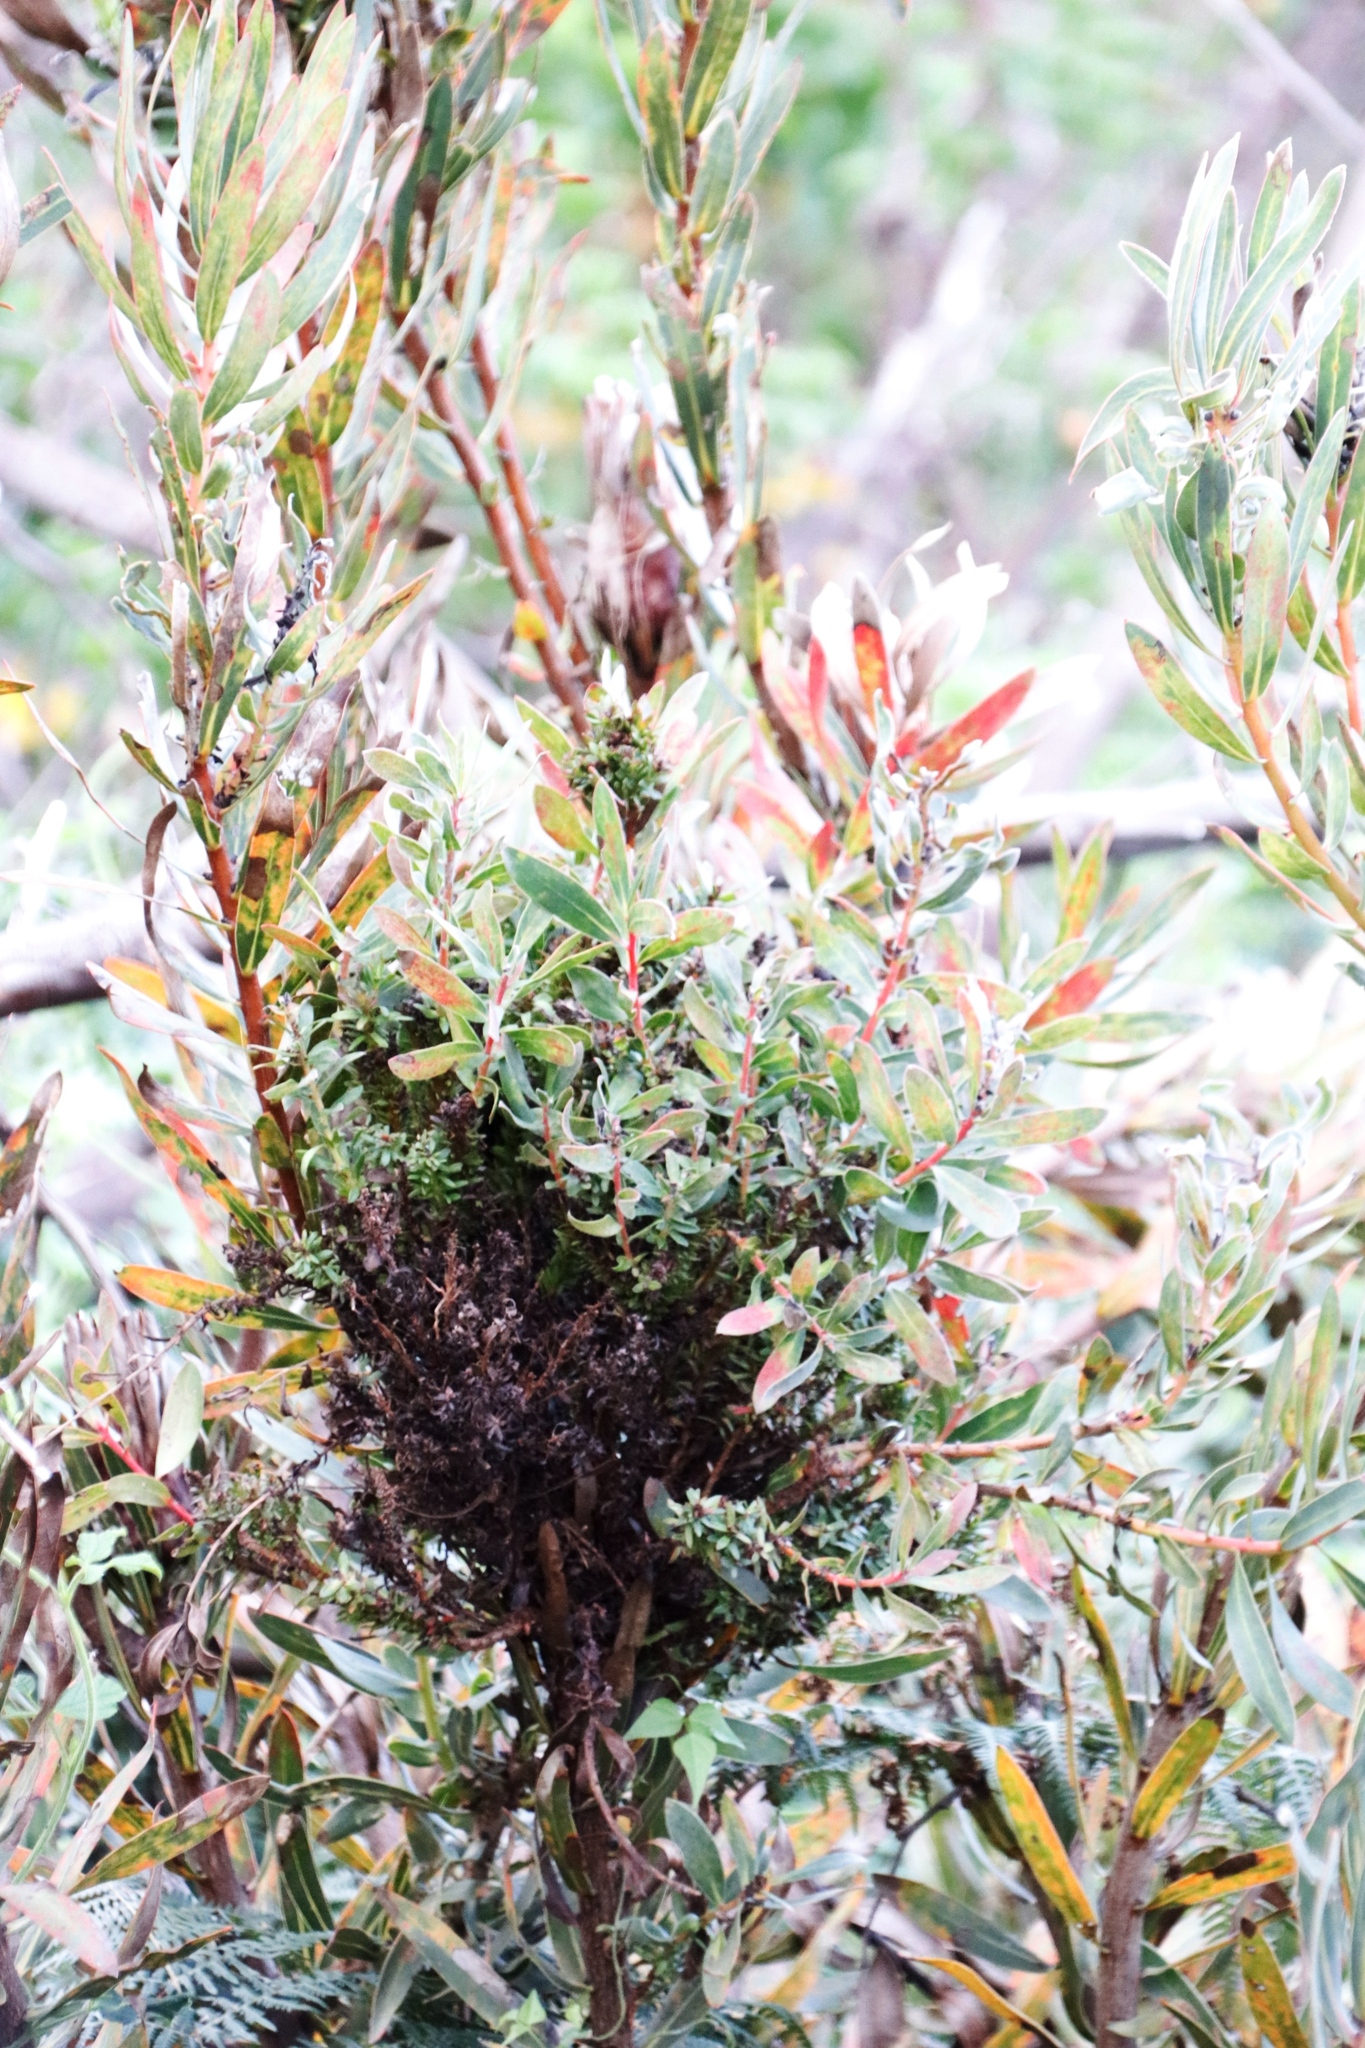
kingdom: Bacteria
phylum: Firmicutes
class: Bacilli
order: Acholeplasmatales
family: Acholeplasmataceae
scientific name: Acholeplasmataceae
